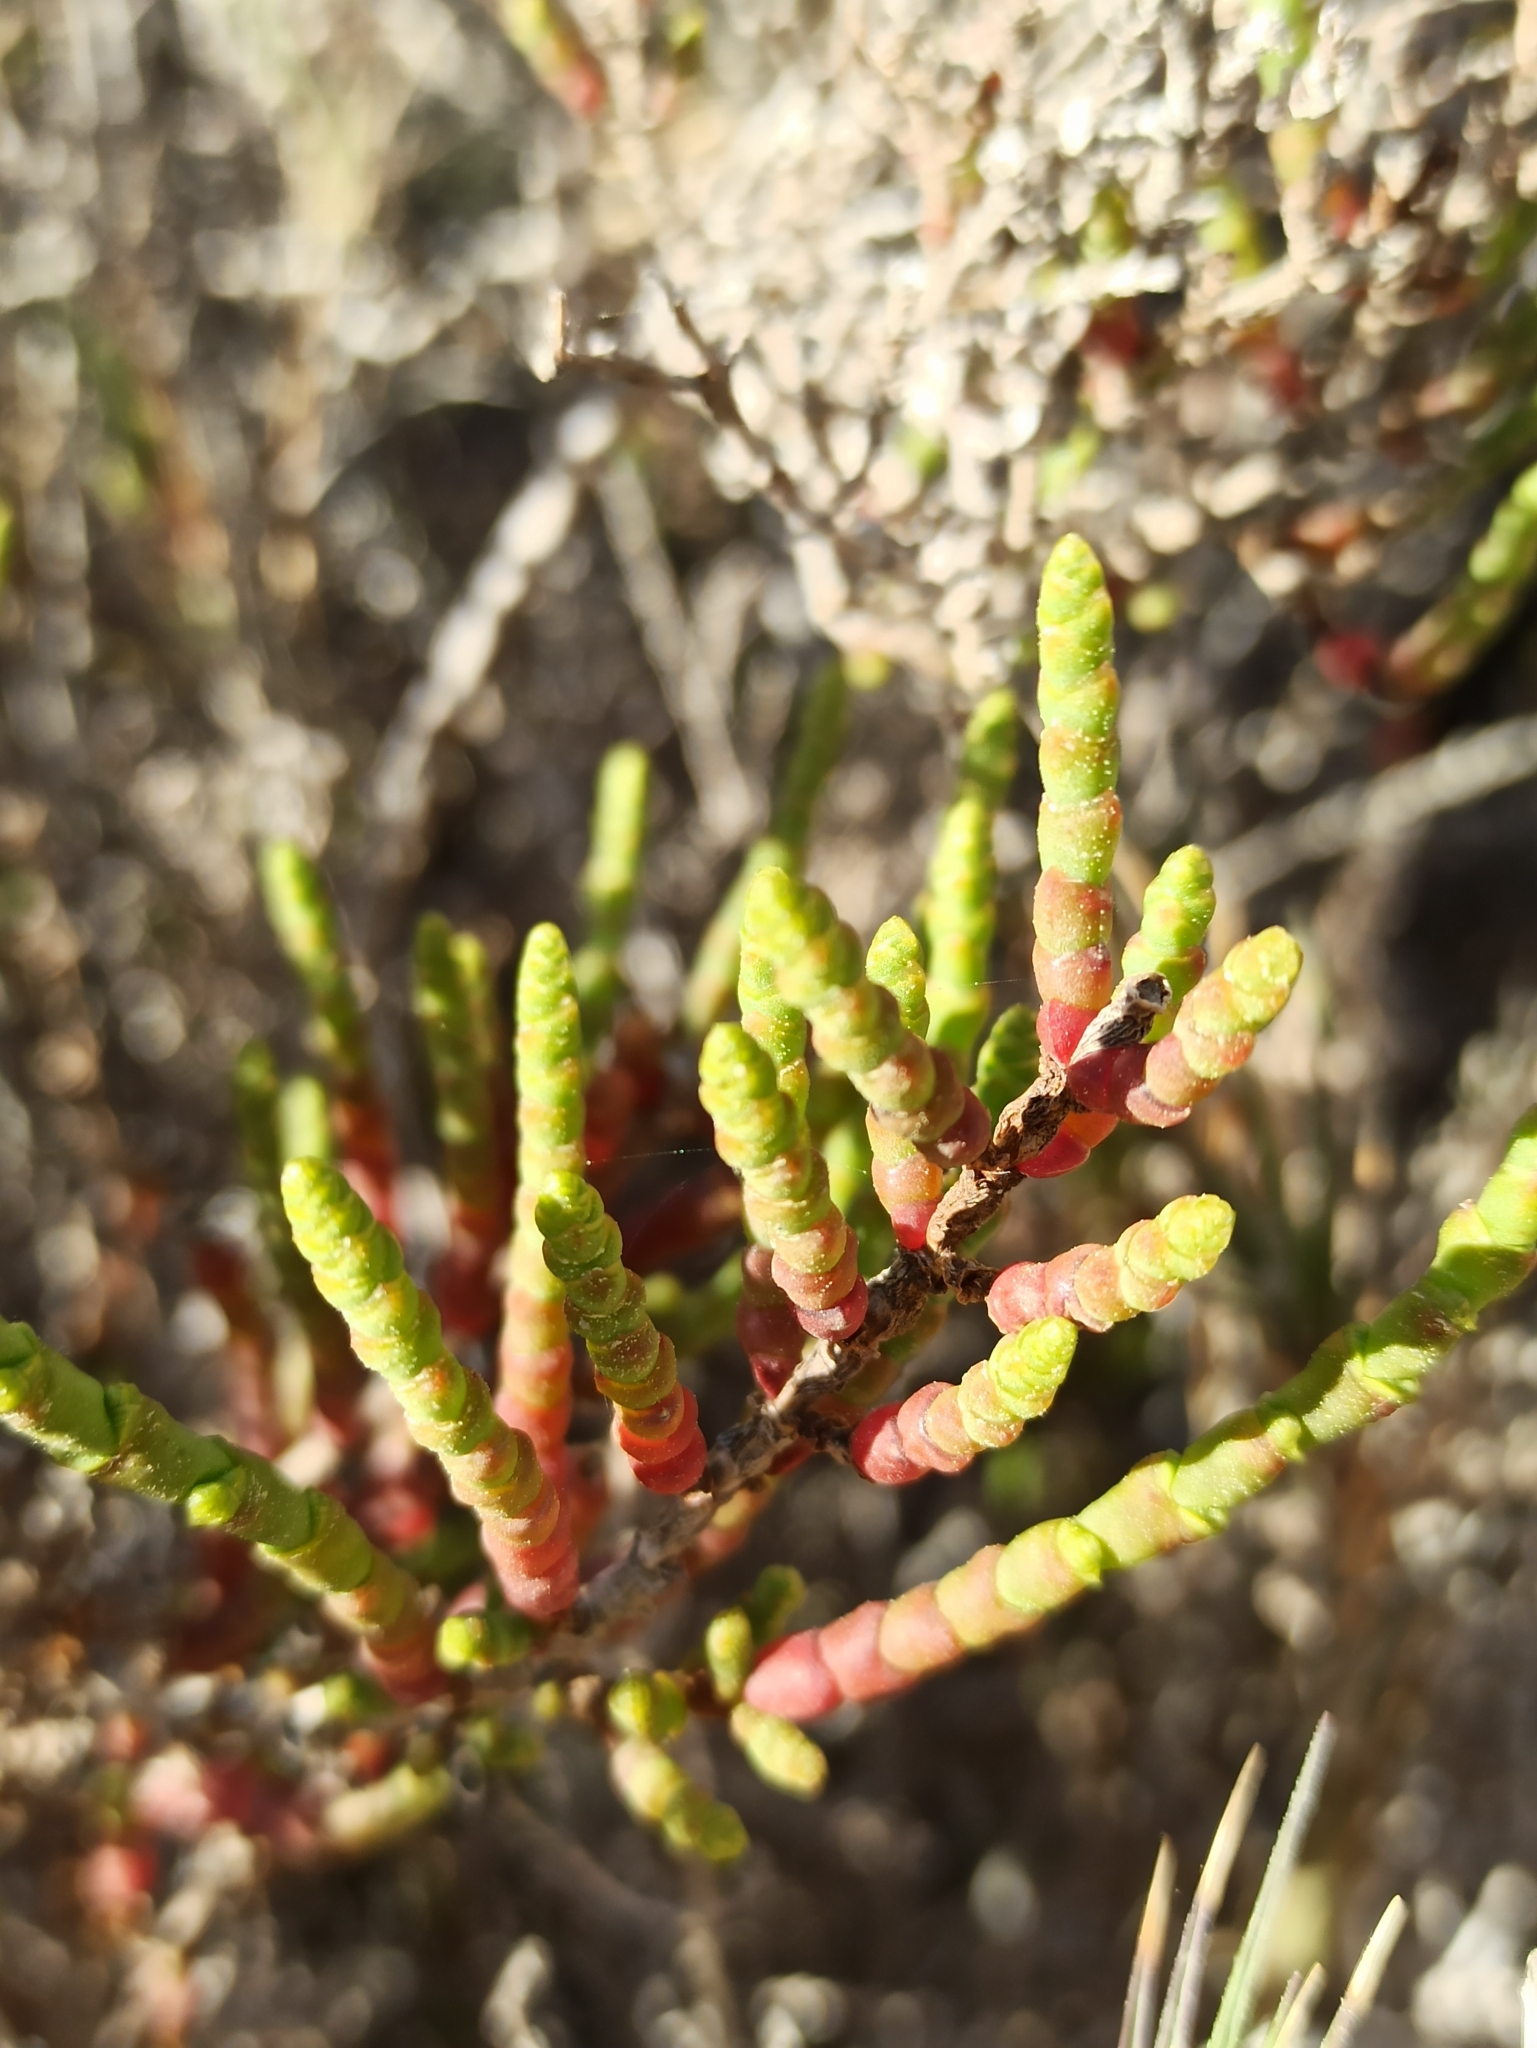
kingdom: Plantae
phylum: Tracheophyta
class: Magnoliopsida
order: Caryophyllales
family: Amaranthaceae
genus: Arthrocaulon
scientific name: Arthrocaulon macrostachyum
